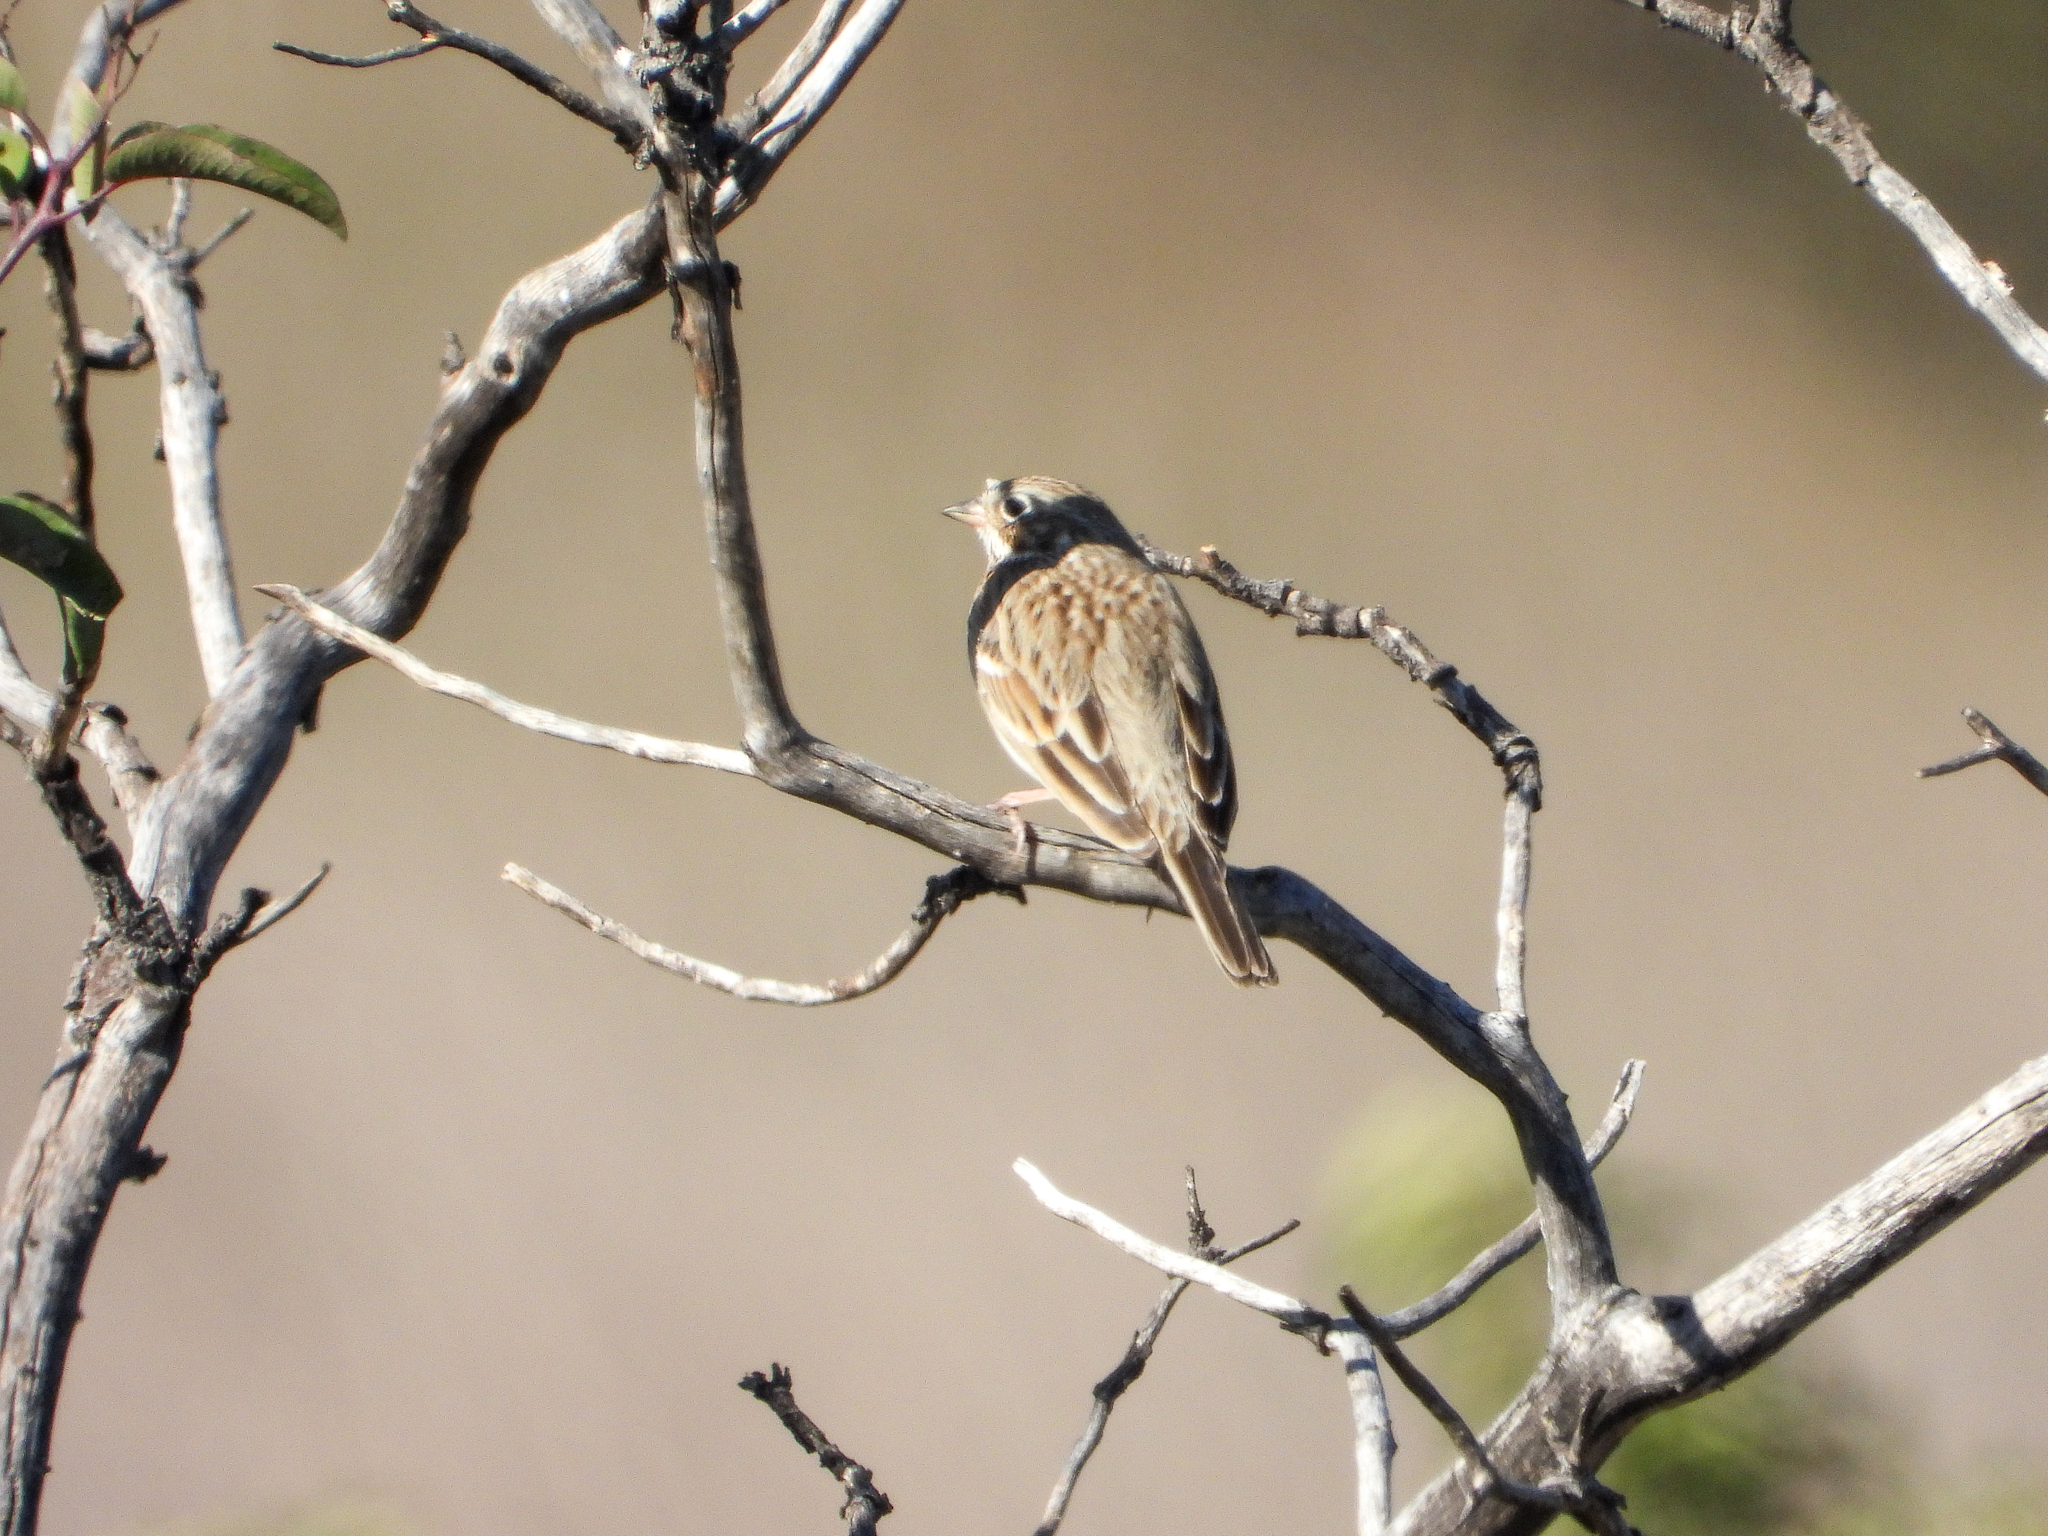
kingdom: Animalia
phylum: Chordata
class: Aves
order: Passeriformes
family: Passerellidae
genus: Pooecetes
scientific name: Pooecetes gramineus
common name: Vesper sparrow
